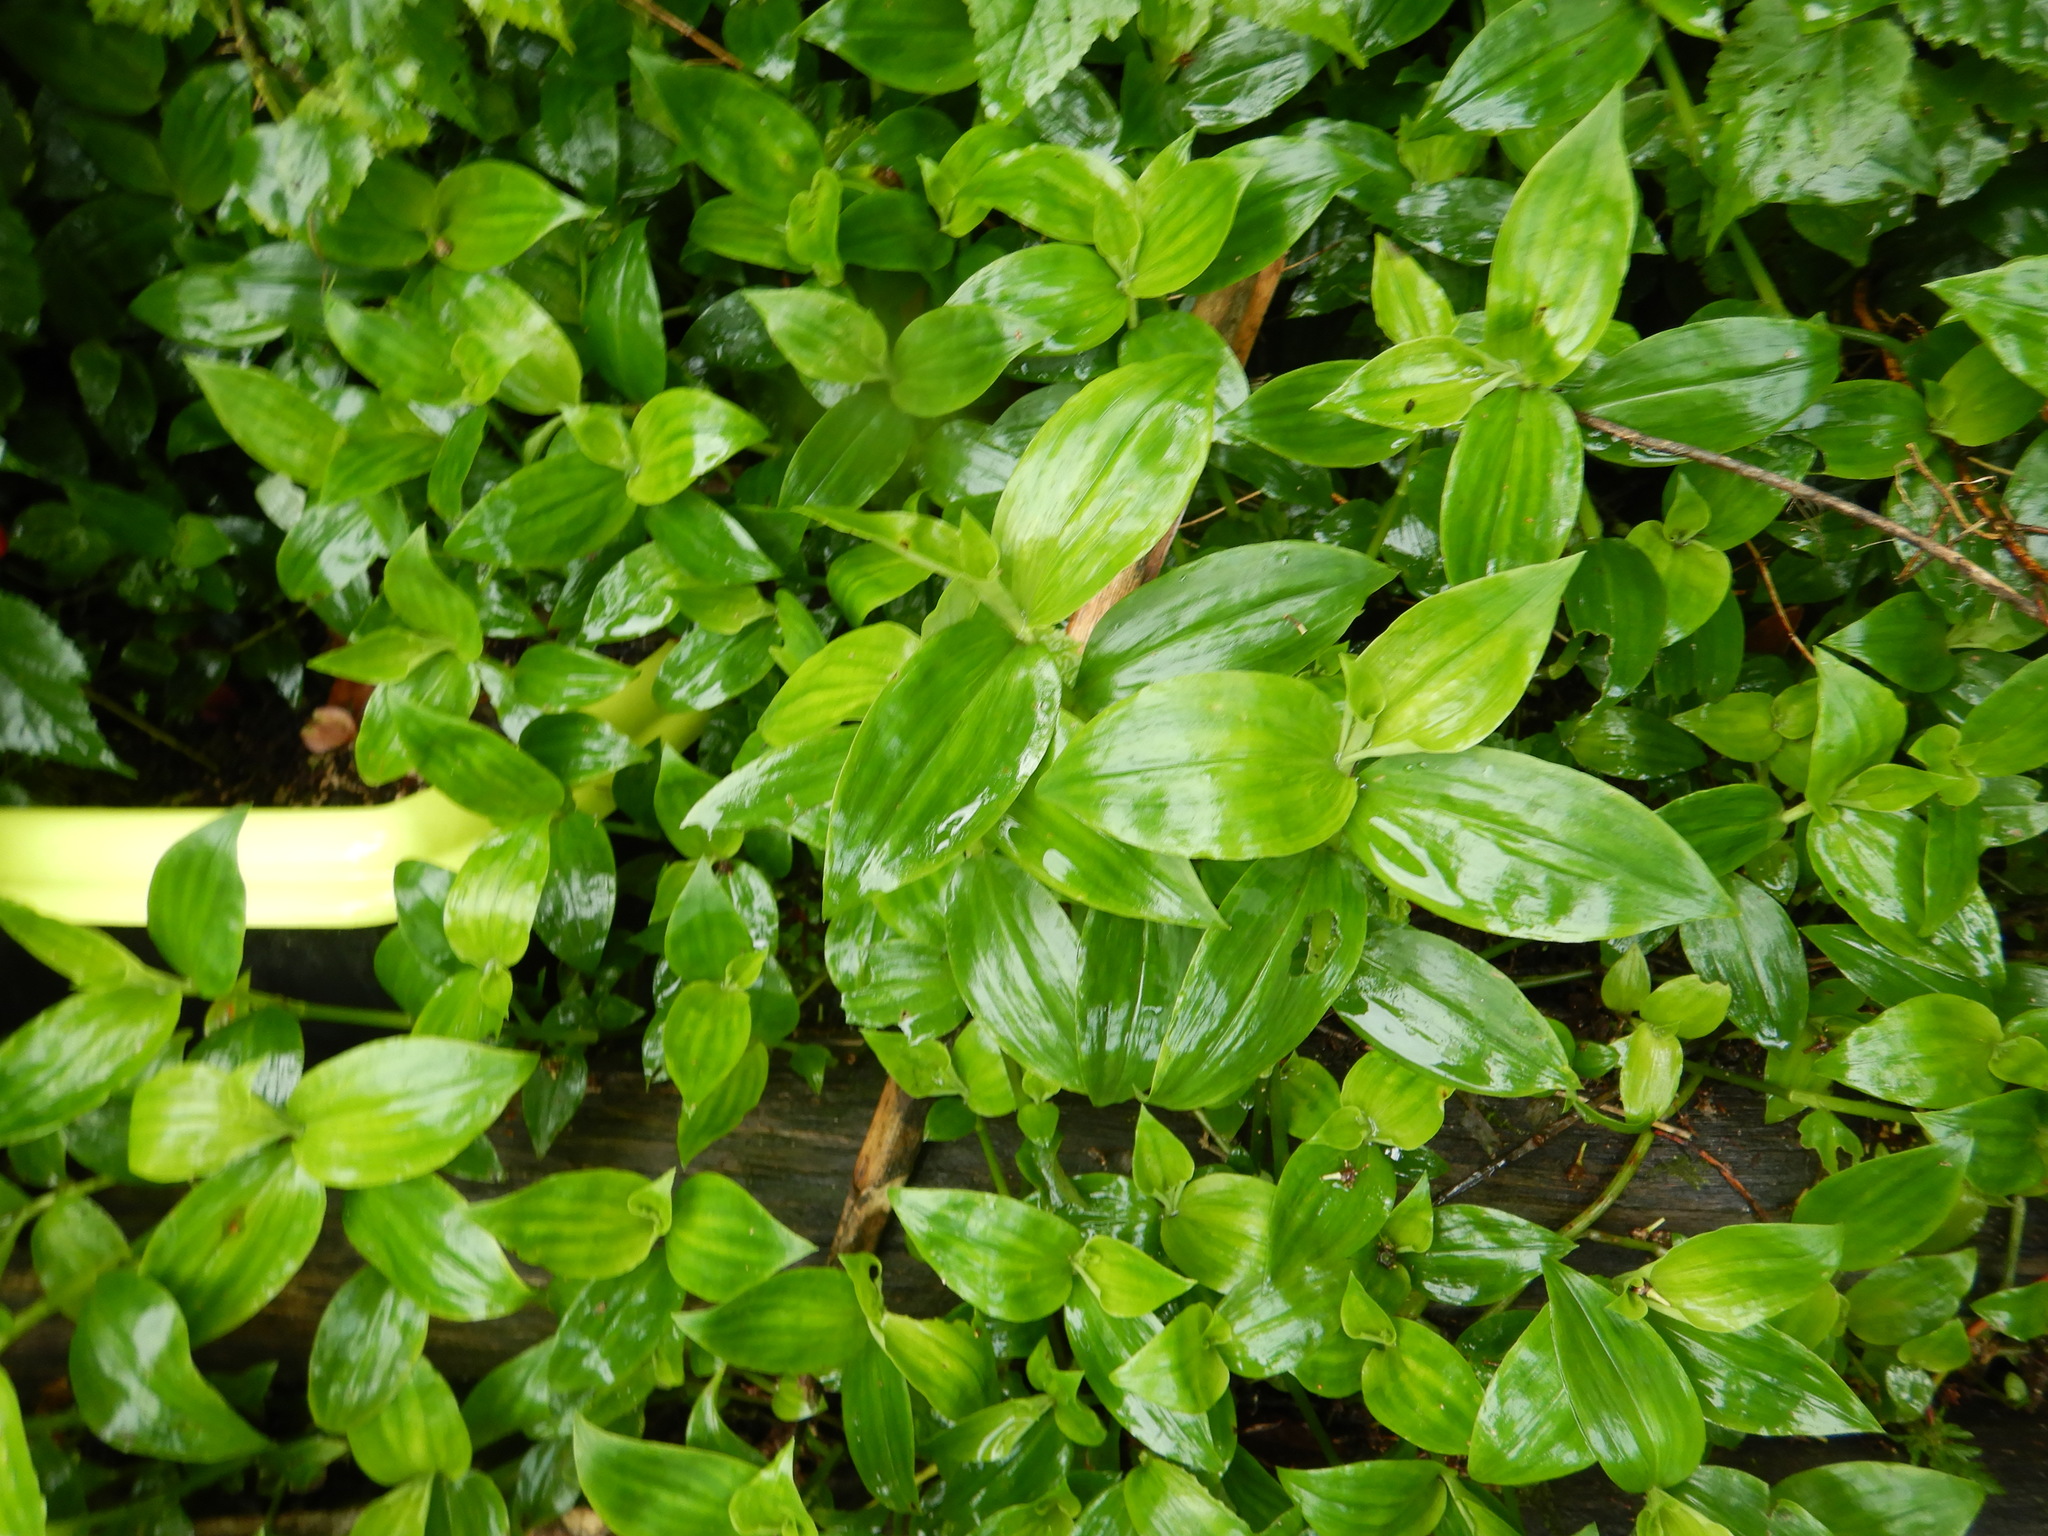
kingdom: Plantae
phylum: Tracheophyta
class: Liliopsida
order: Commelinales
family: Commelinaceae
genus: Tradescantia
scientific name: Tradescantia fluminensis
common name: Wandering-jew
